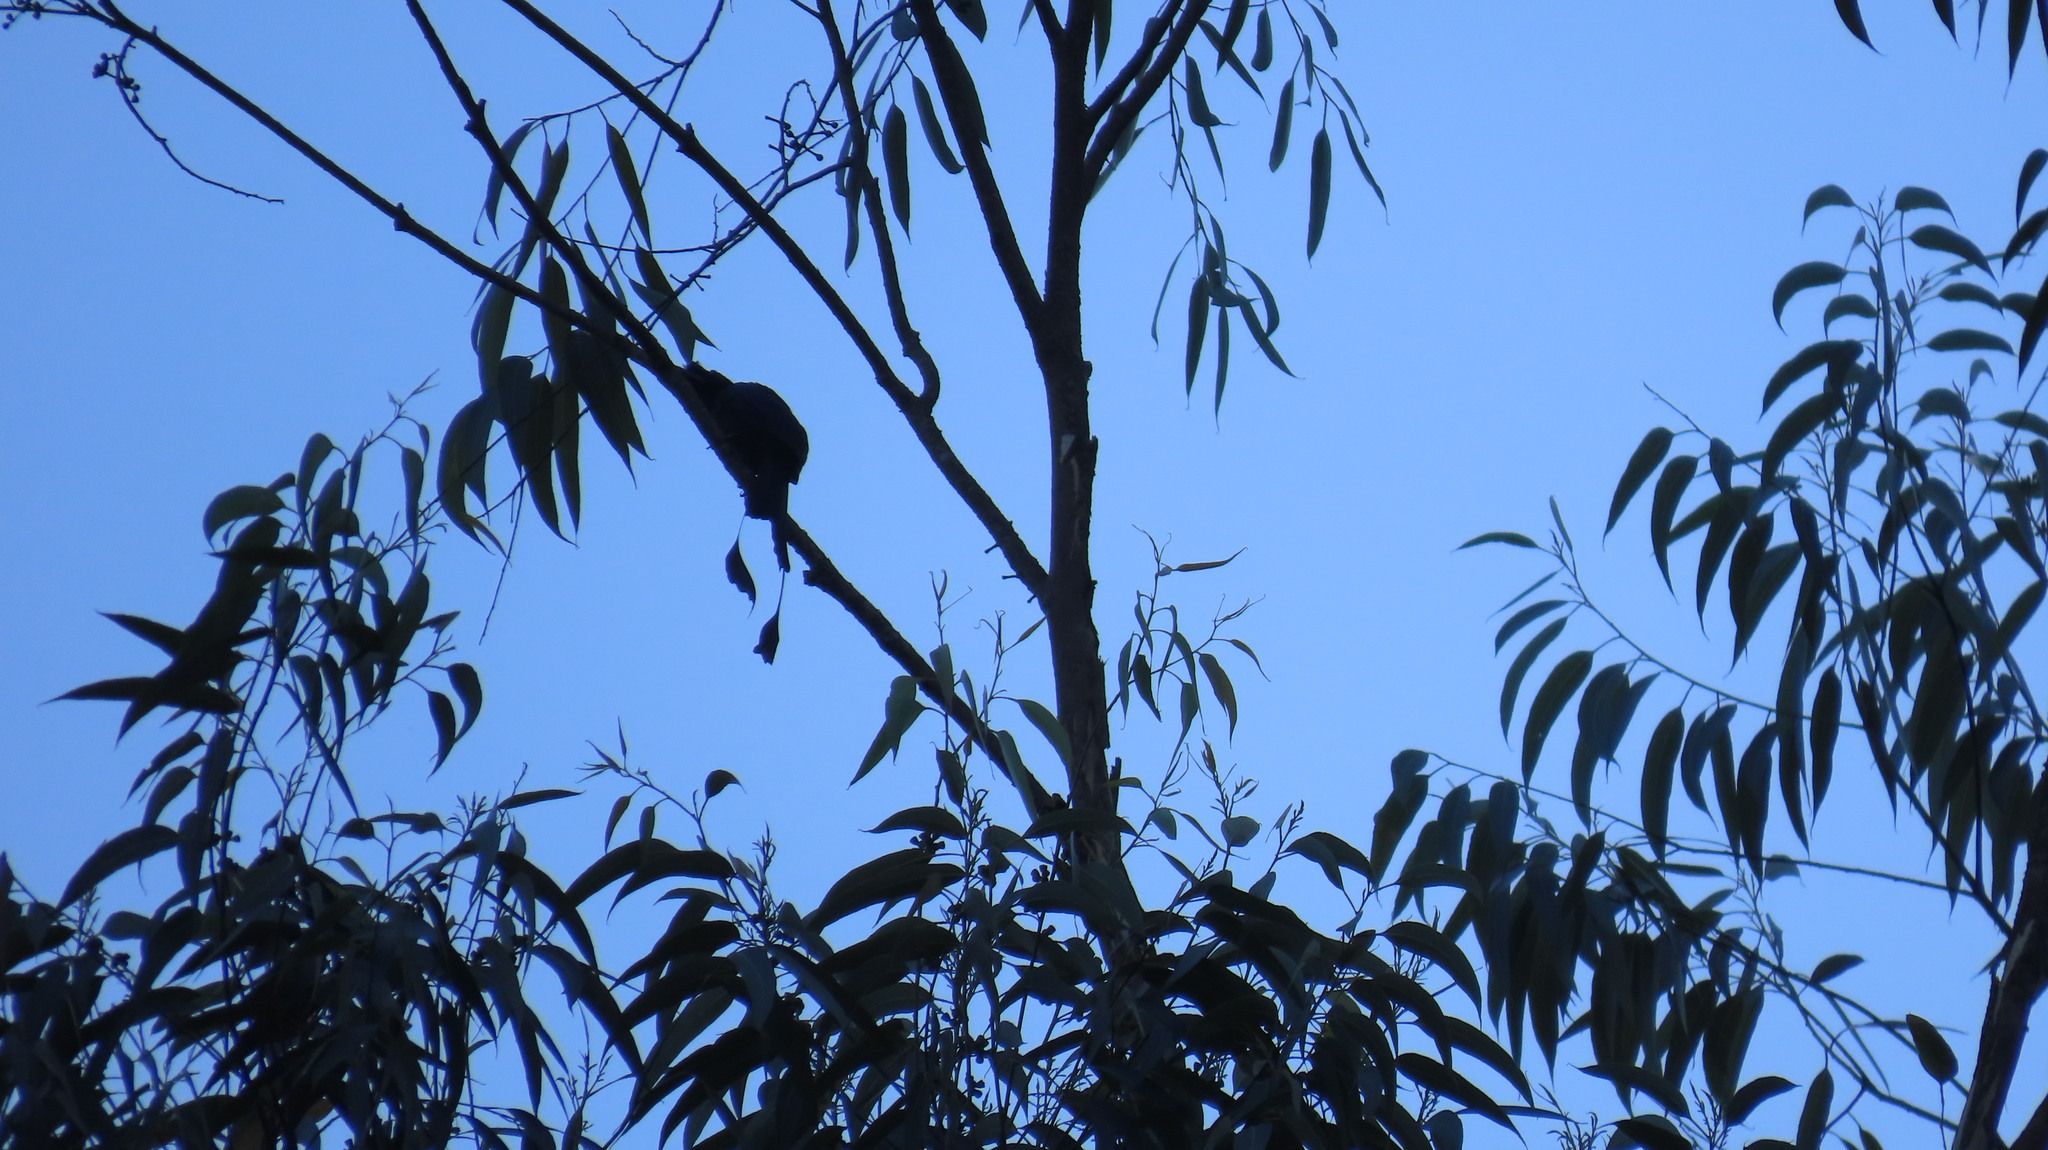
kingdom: Animalia
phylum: Chordata
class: Aves
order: Passeriformes
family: Dicruridae
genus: Dicrurus
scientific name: Dicrurus paradiseus
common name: Greater racket-tailed drongo
